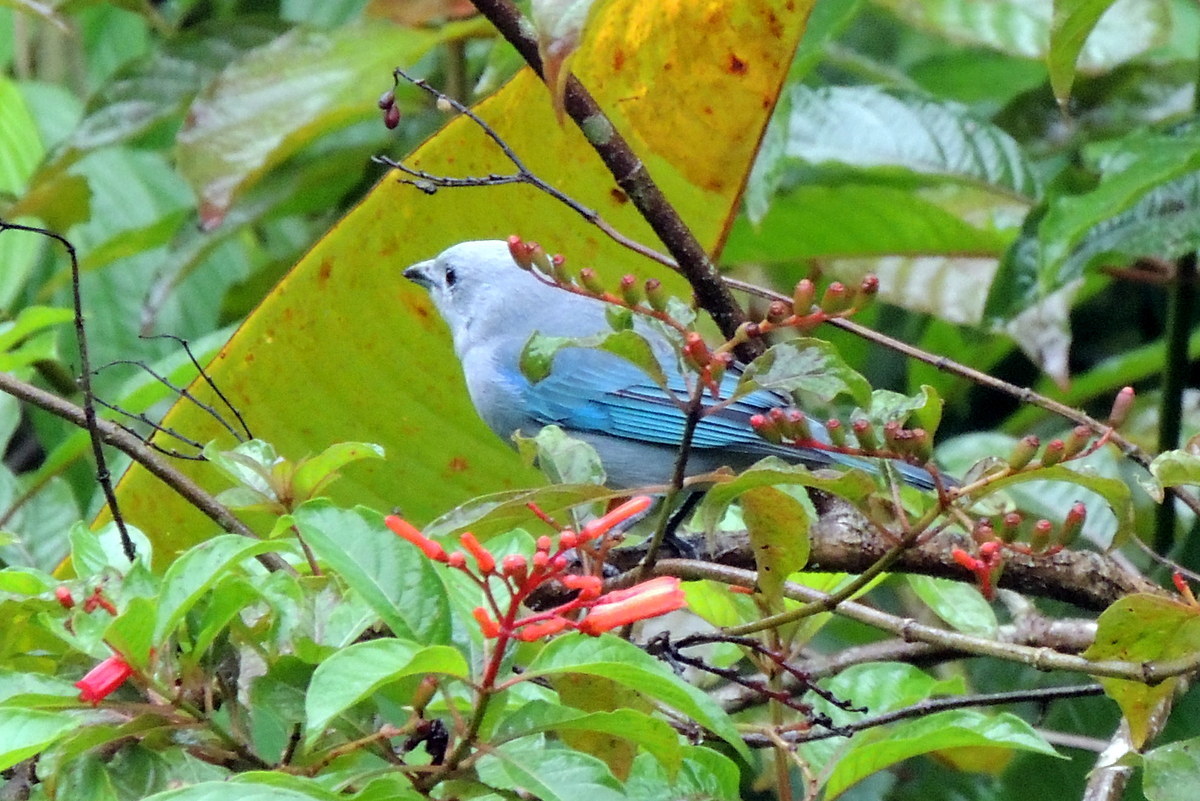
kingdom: Animalia
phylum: Chordata
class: Aves
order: Passeriformes
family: Thraupidae
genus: Thraupis
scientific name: Thraupis episcopus
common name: Blue-grey tanager
